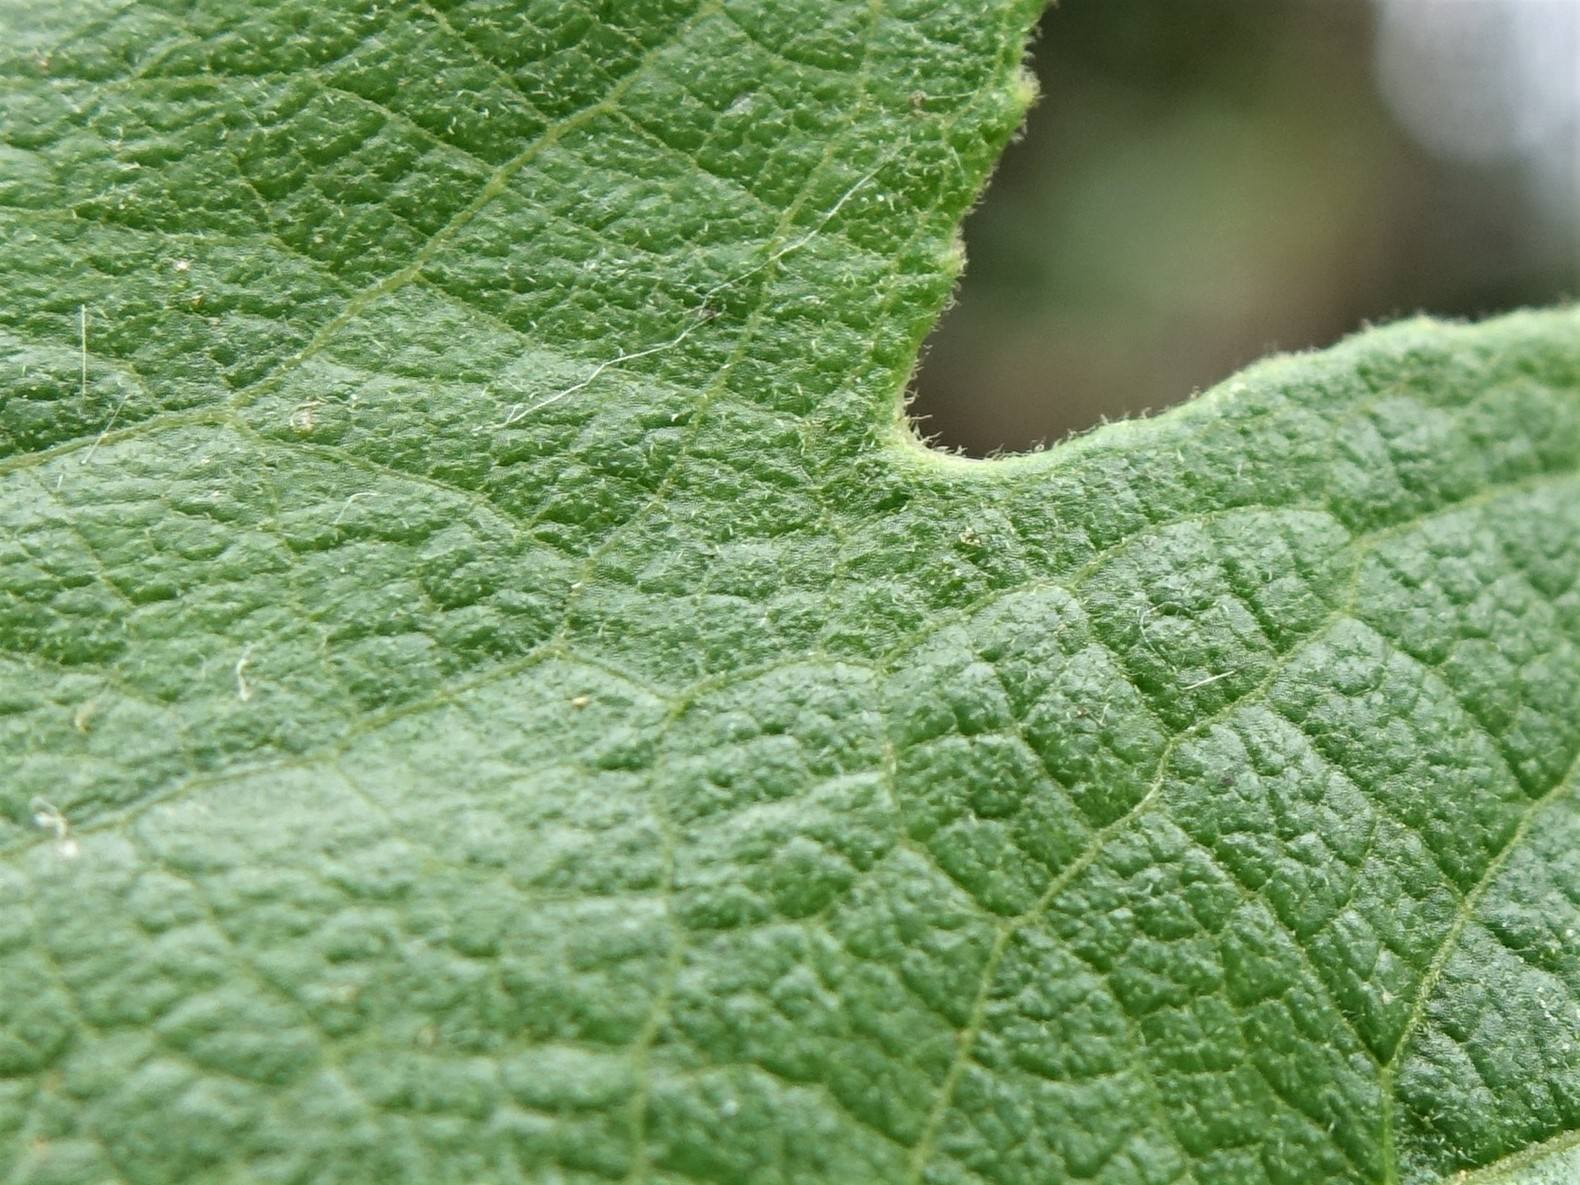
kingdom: Plantae
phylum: Tracheophyta
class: Magnoliopsida
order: Malpighiales
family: Passifloraceae
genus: Passiflora
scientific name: Passiflora tripartita
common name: Banana poka
